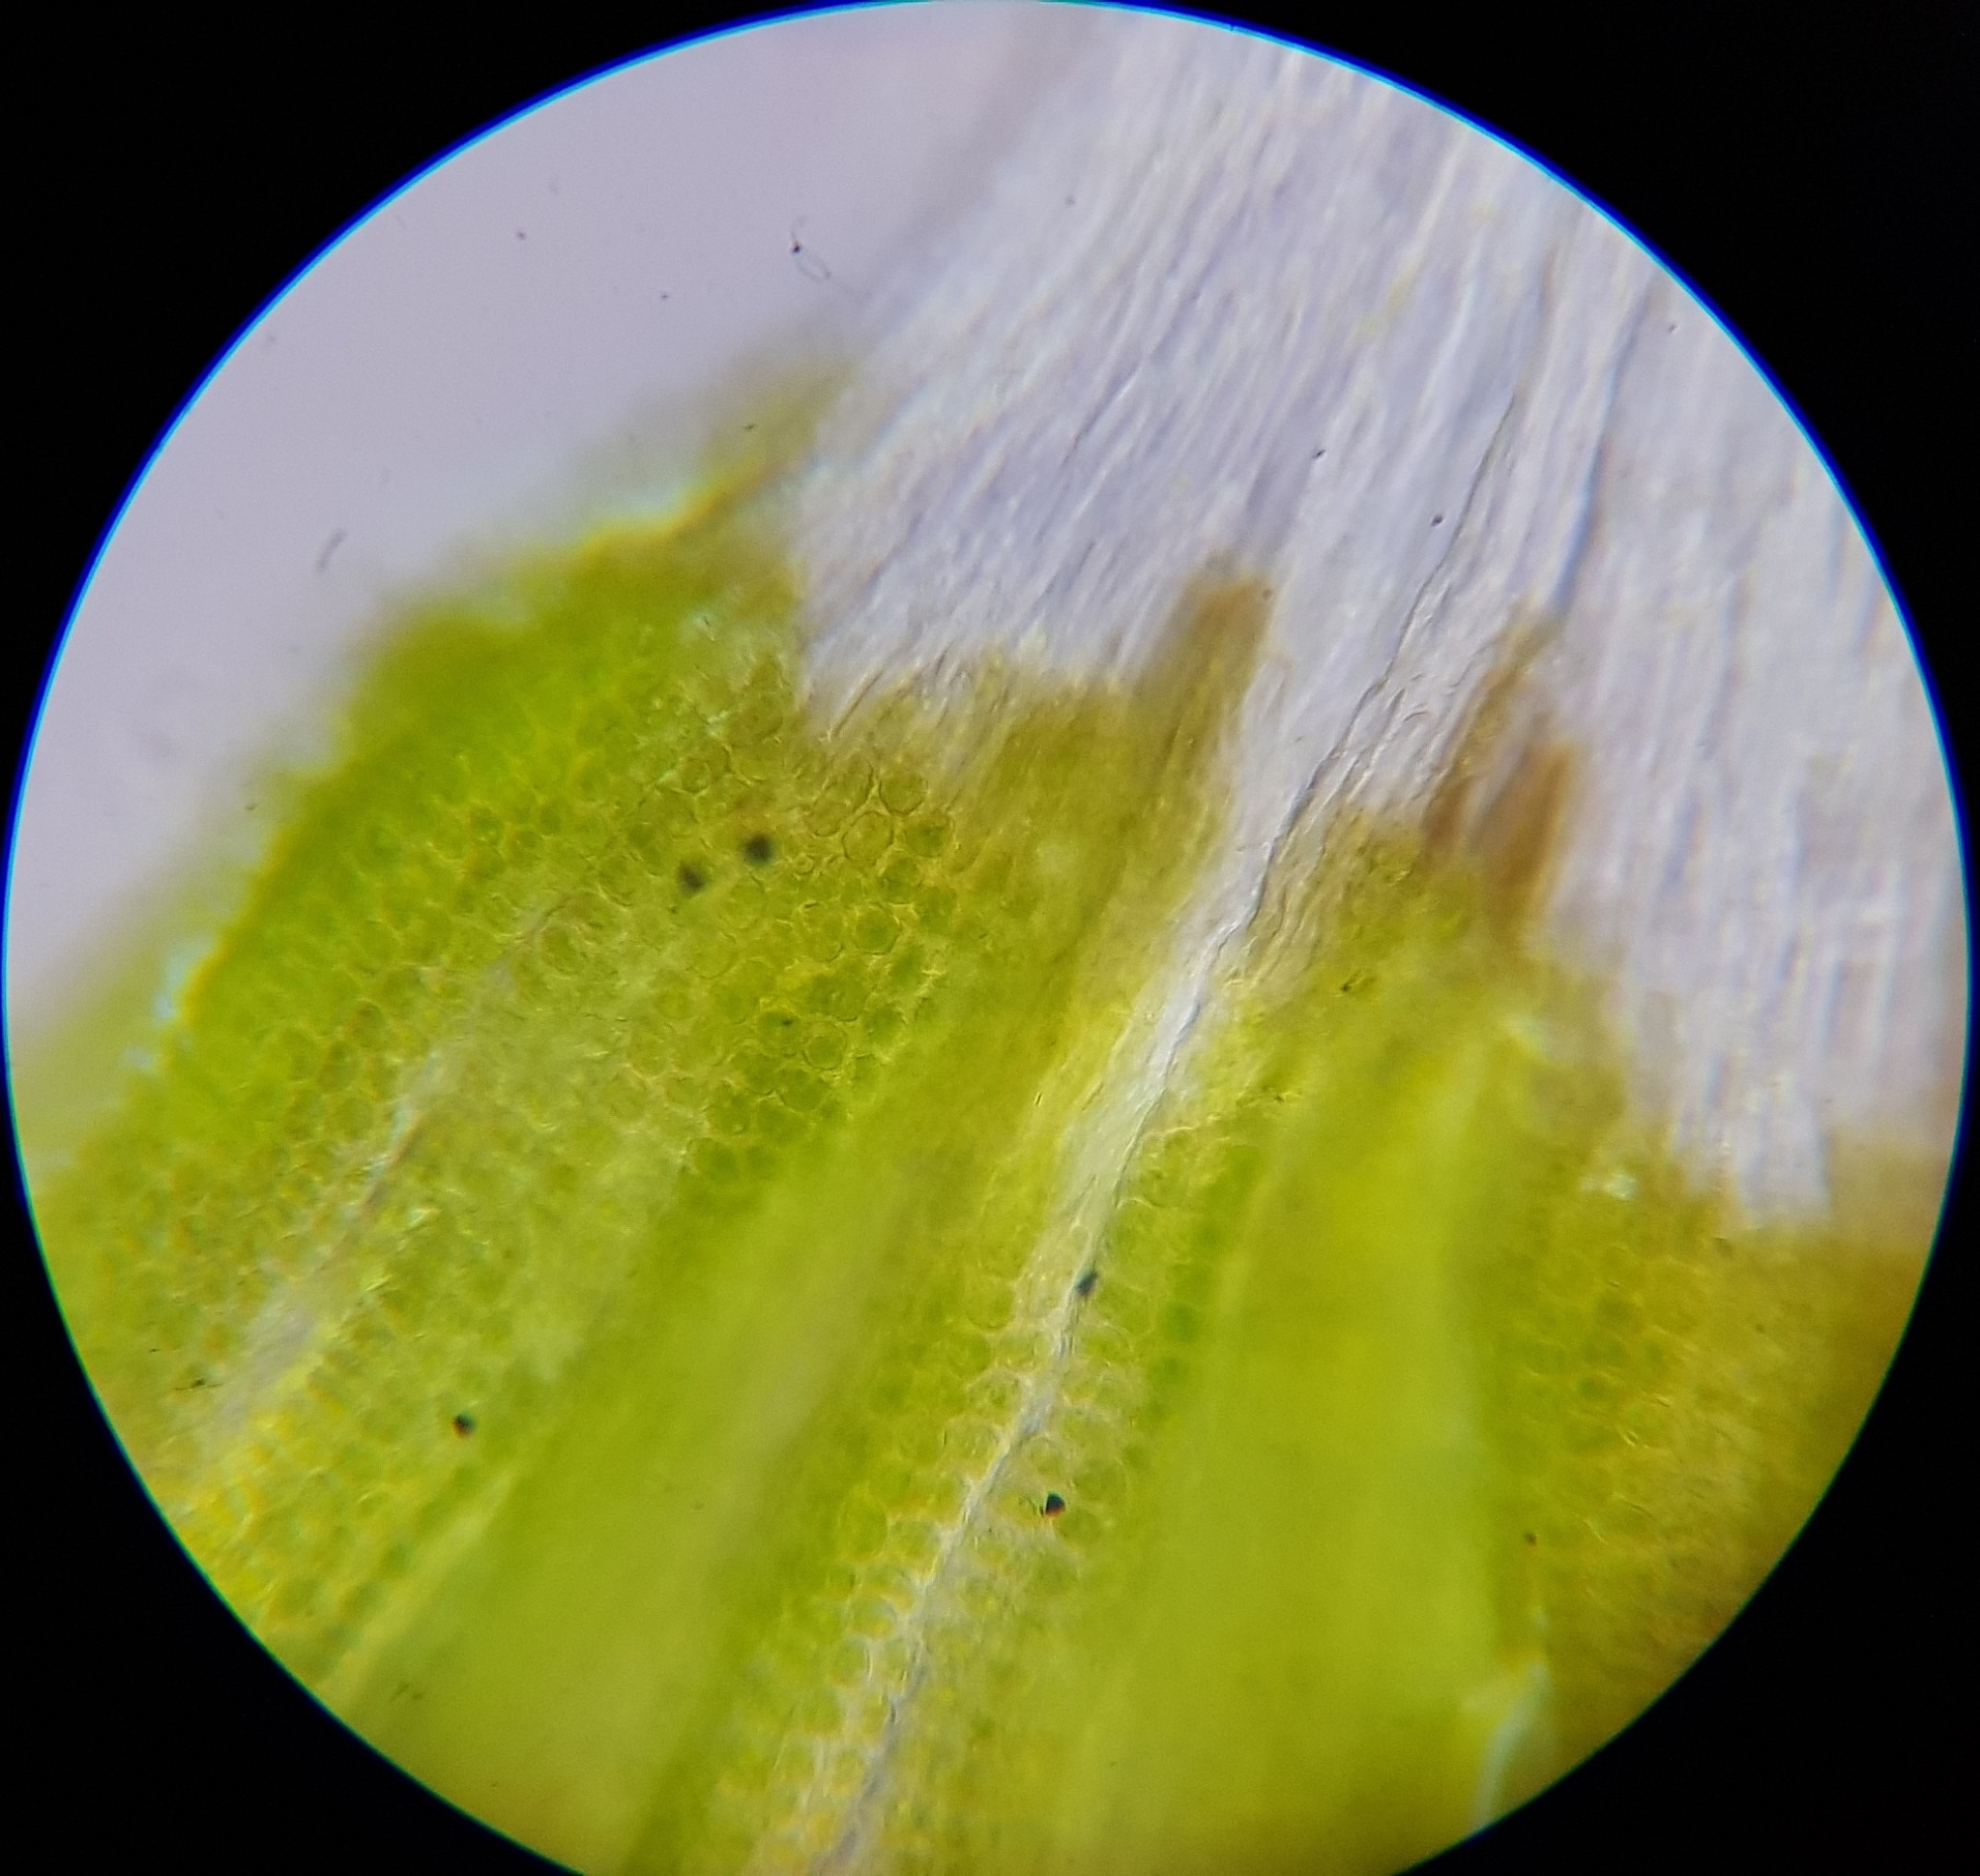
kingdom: Plantae
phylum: Bryophyta
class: Bryopsida
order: Grimmiales
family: Grimmiaceae
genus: Coscinodon
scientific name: Coscinodon cribrosus
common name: Sieve-tooth moss
